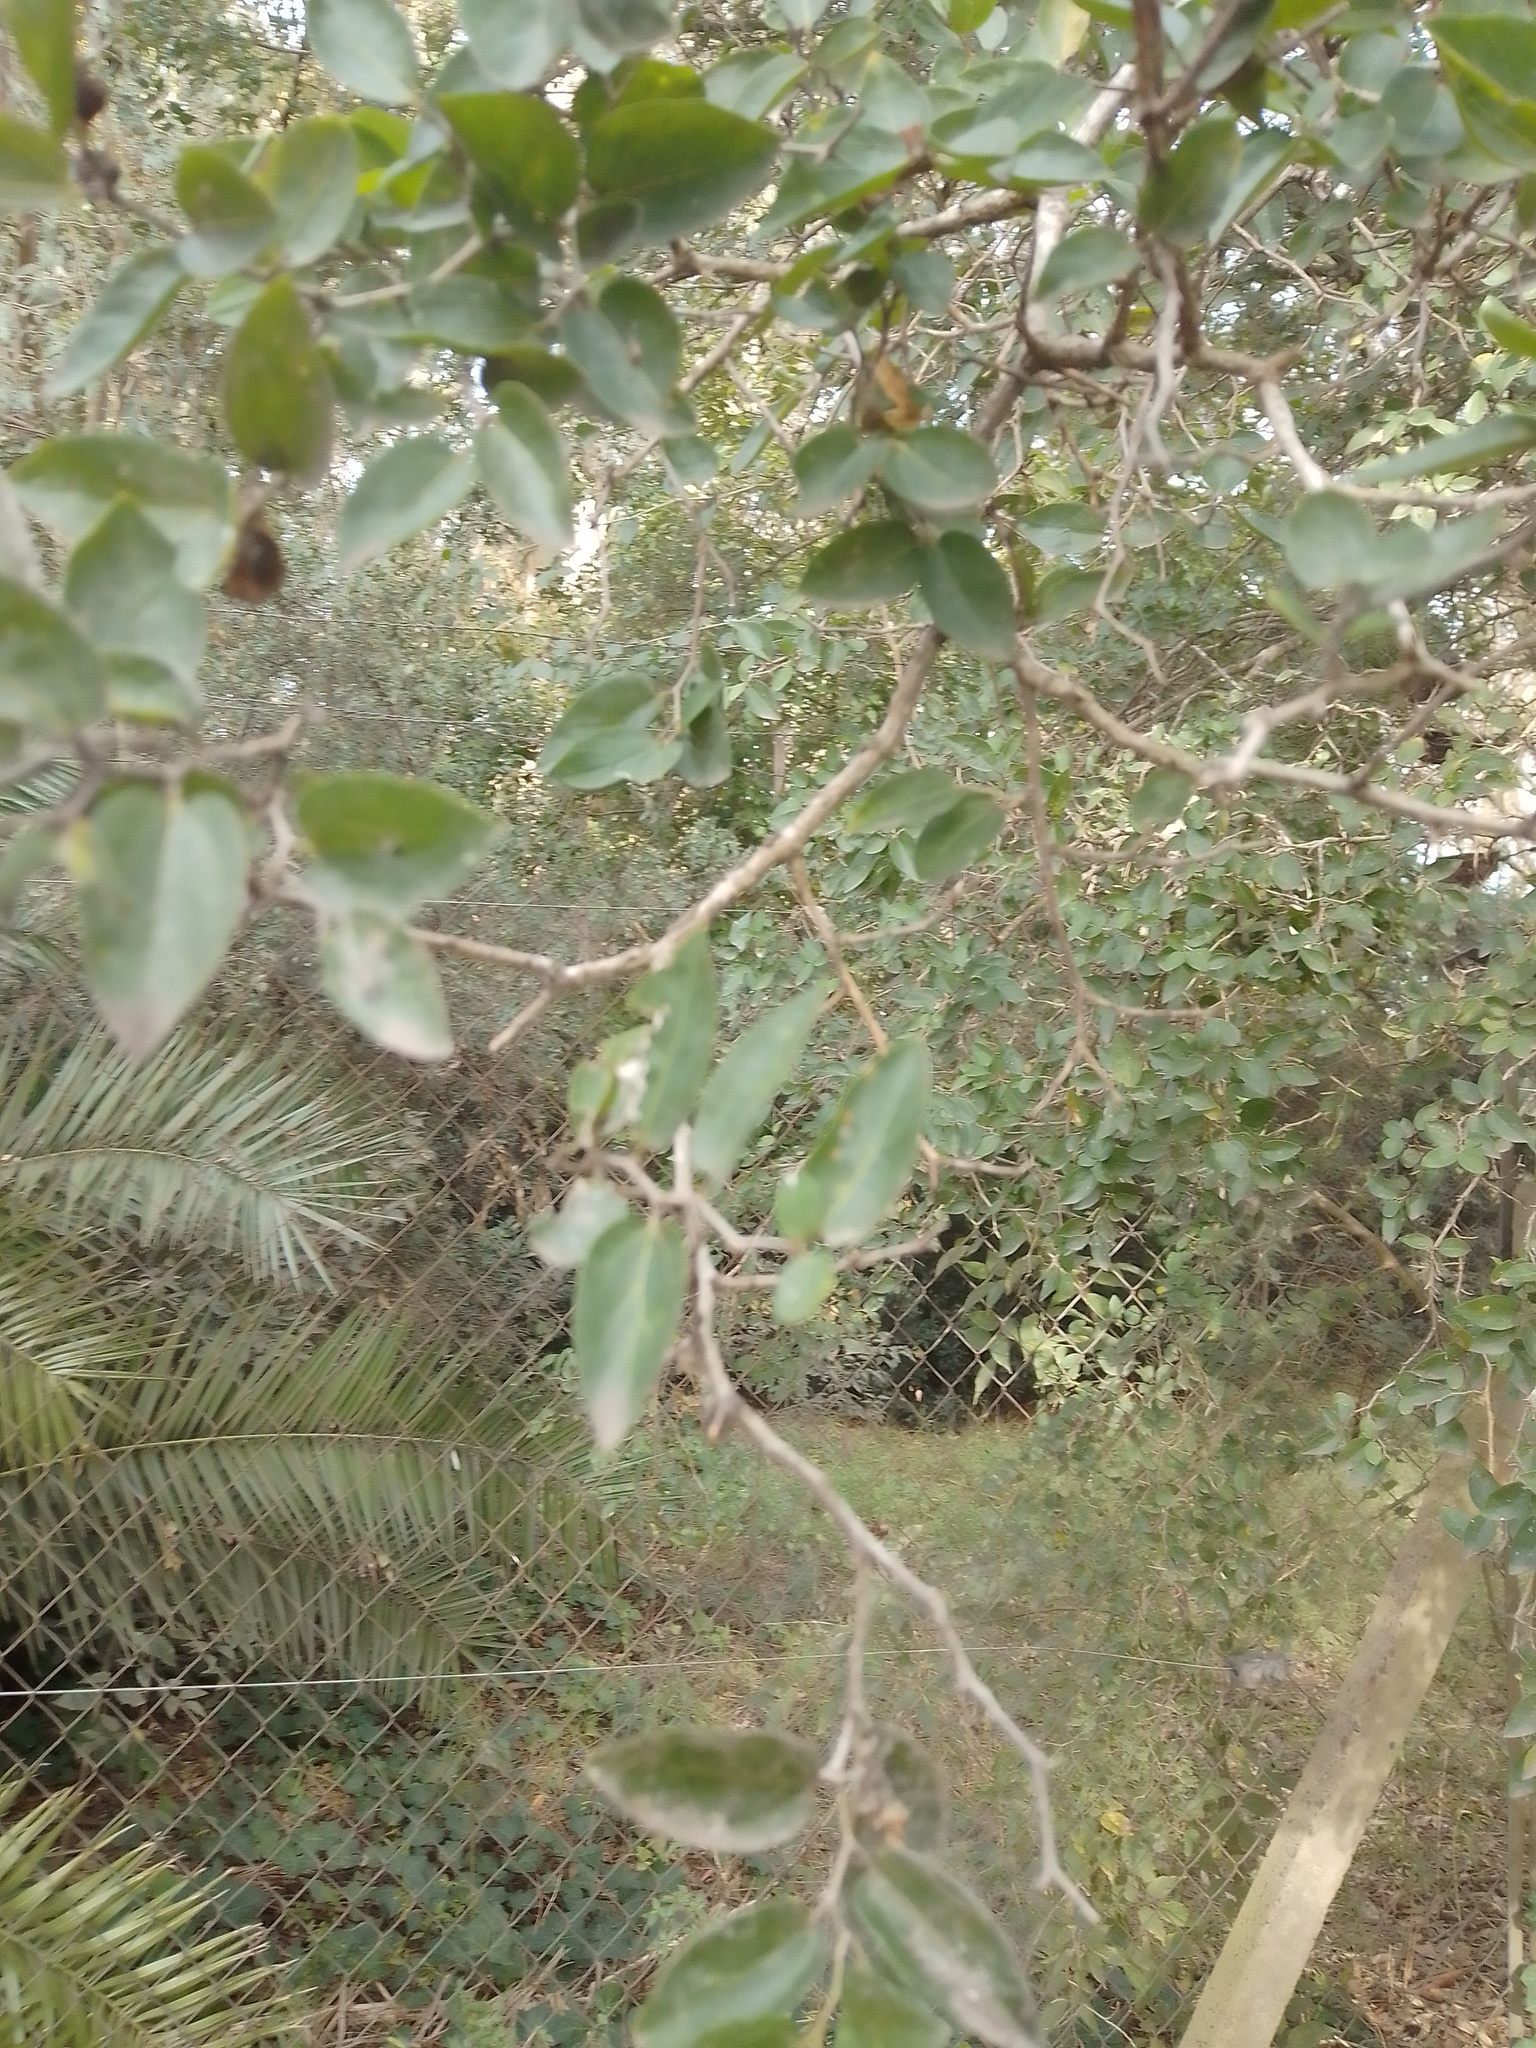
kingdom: Plantae
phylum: Tracheophyta
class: Magnoliopsida
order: Rosales
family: Cannabaceae
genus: Celtis
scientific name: Celtis tala
